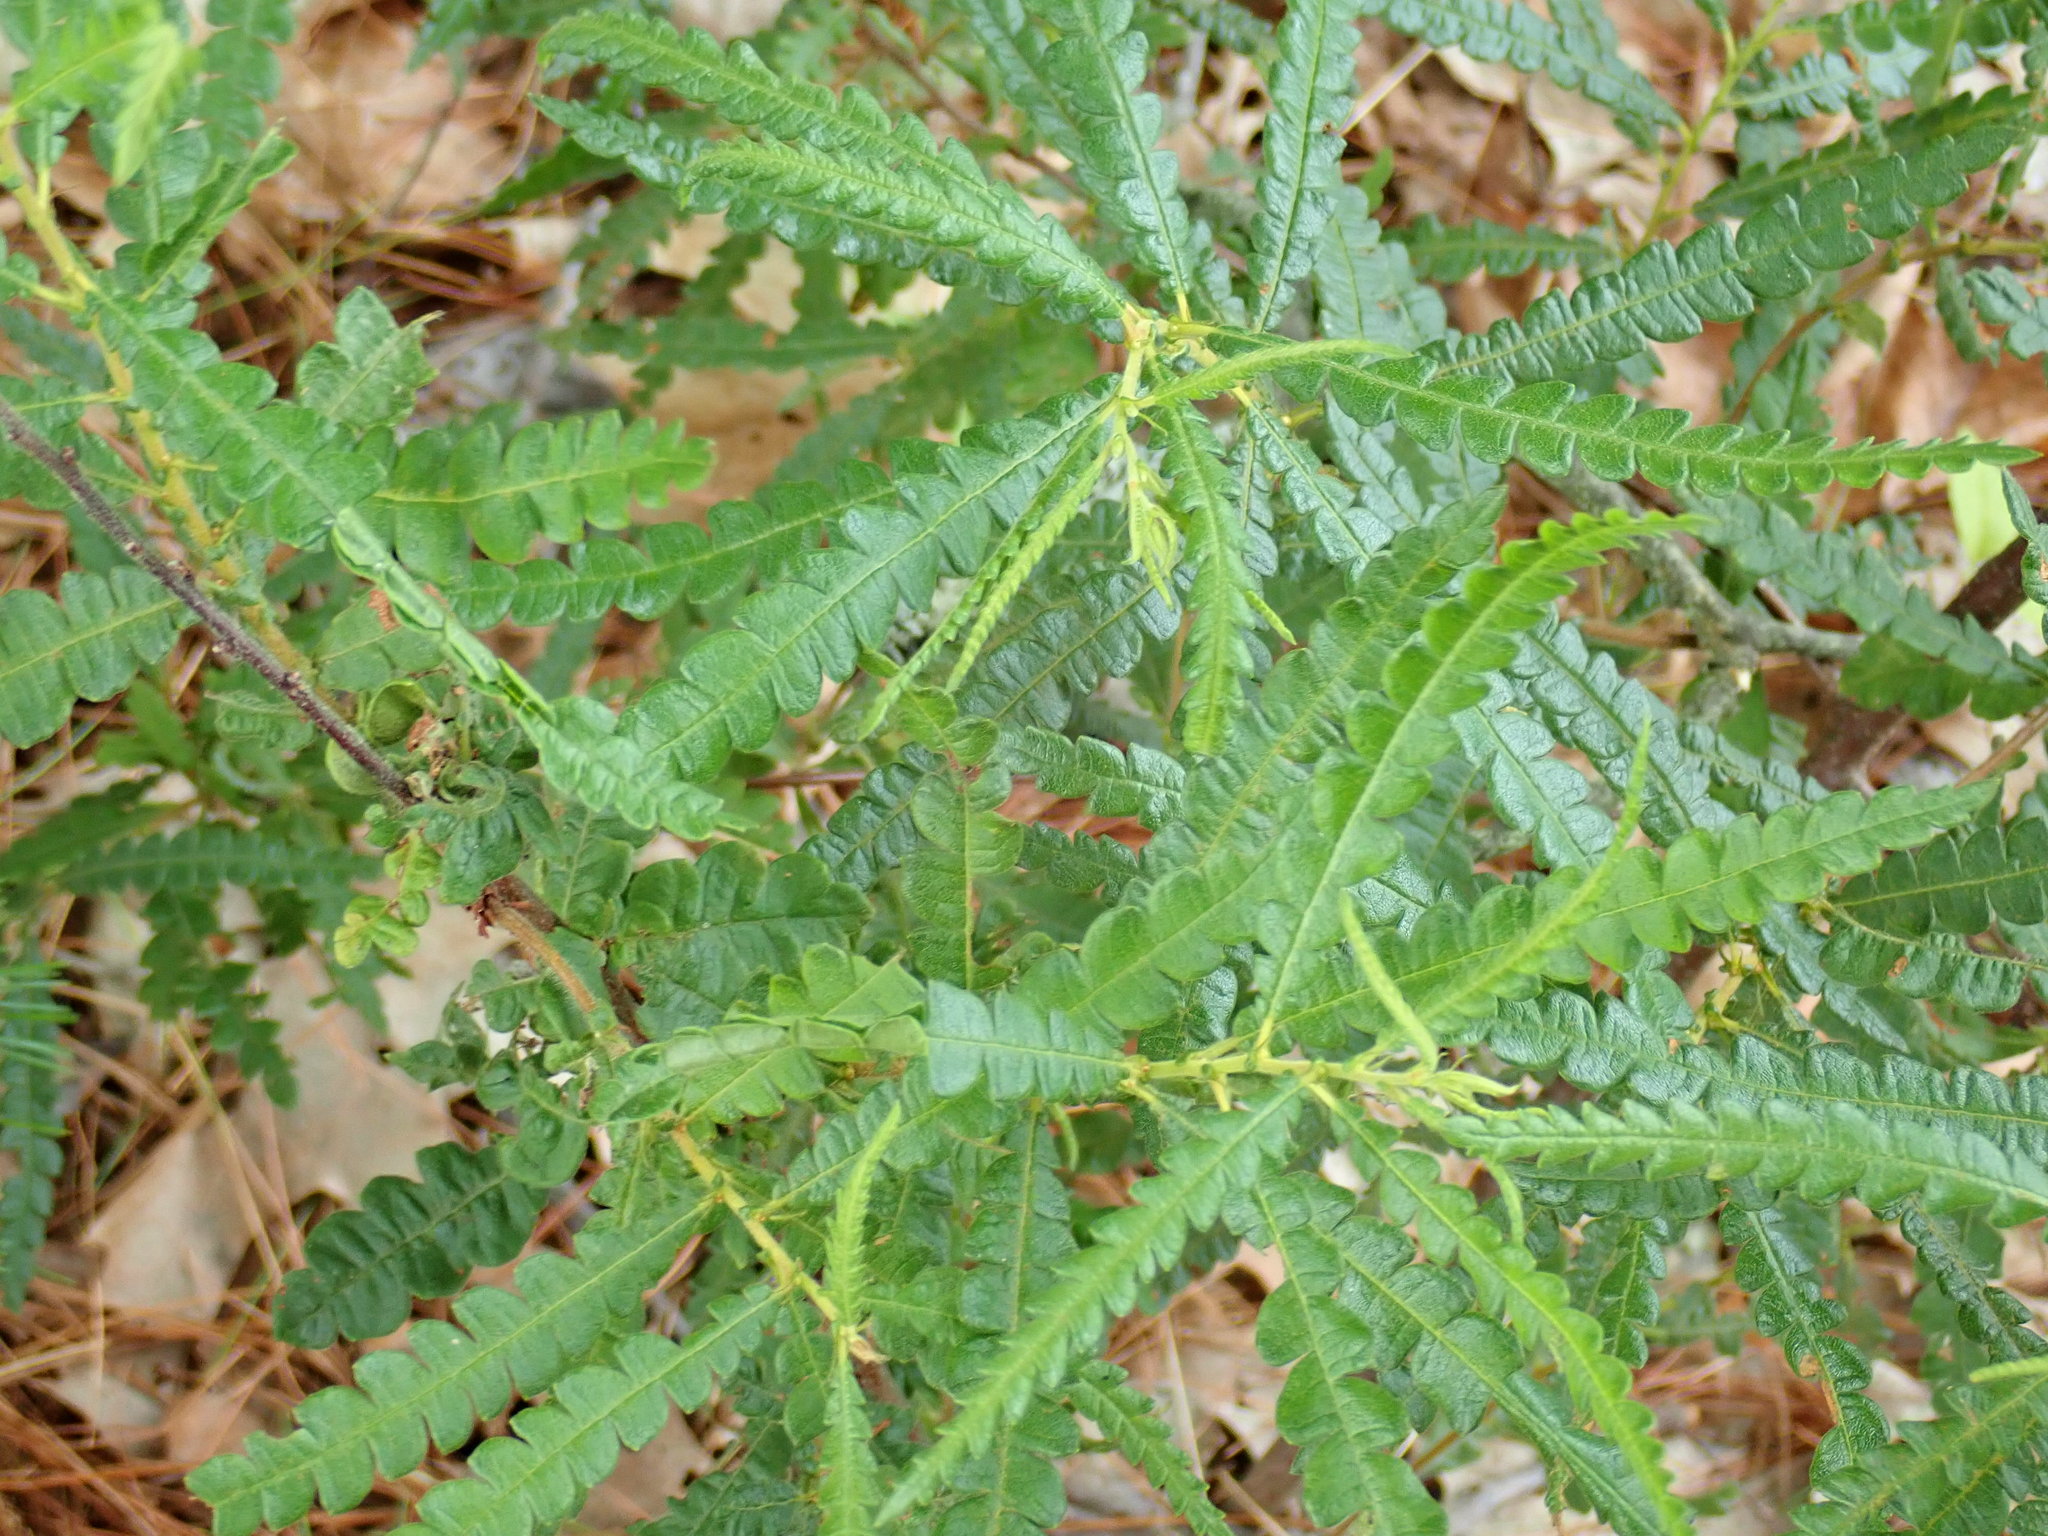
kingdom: Plantae
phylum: Tracheophyta
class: Magnoliopsida
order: Fagales
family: Myricaceae
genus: Comptonia
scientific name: Comptonia peregrina
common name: Sweet-fern
